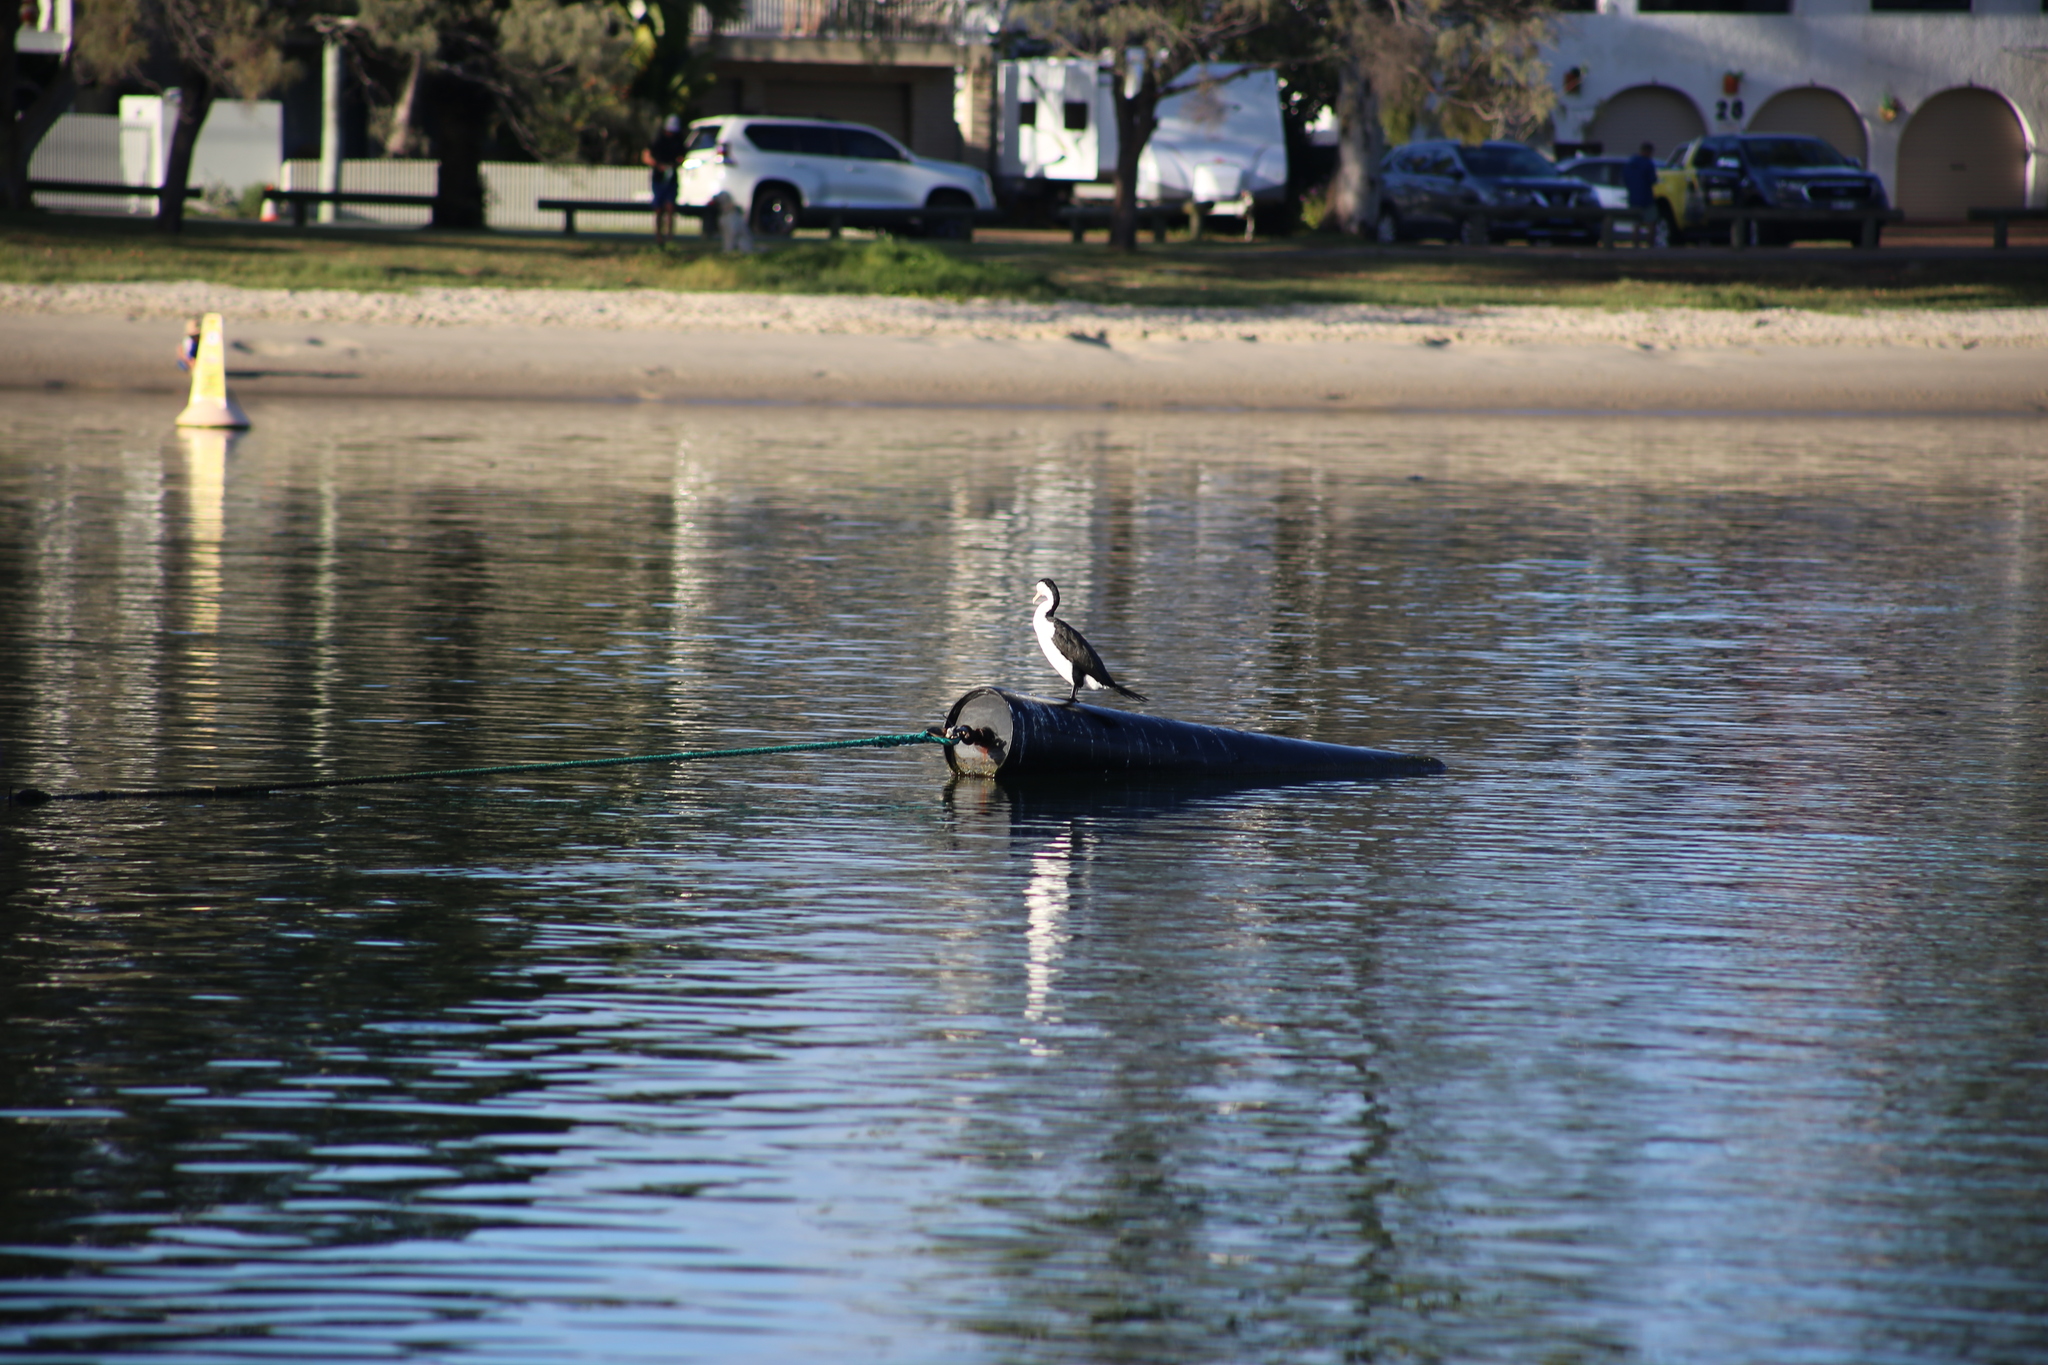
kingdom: Animalia
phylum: Chordata
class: Aves
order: Suliformes
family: Phalacrocoracidae
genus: Phalacrocorax
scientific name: Phalacrocorax varius
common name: Pied cormorant
